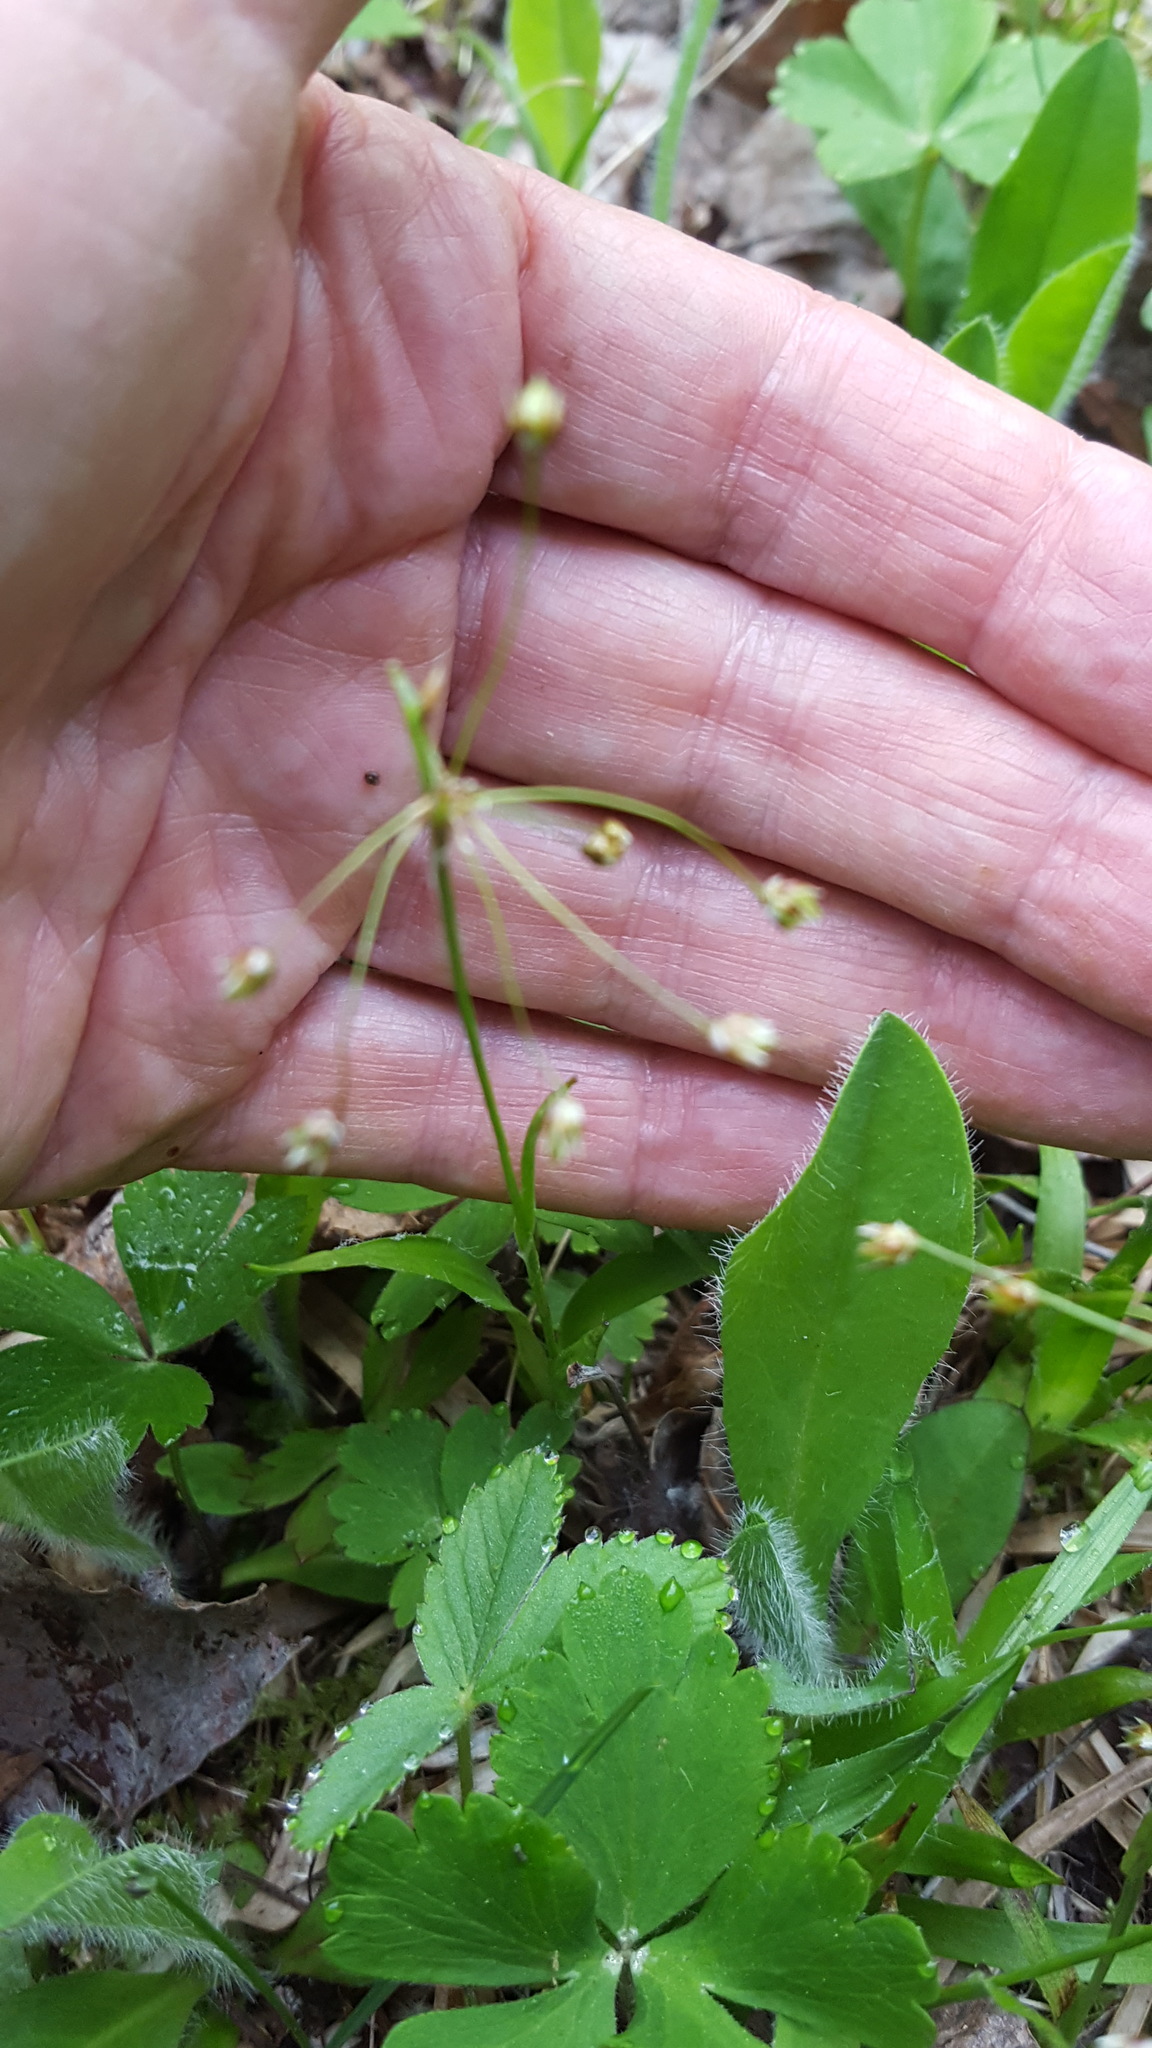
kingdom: Plantae
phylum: Tracheophyta
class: Liliopsida
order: Poales
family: Juncaceae
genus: Luzula
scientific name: Luzula acuminata
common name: Hairy woodrush
